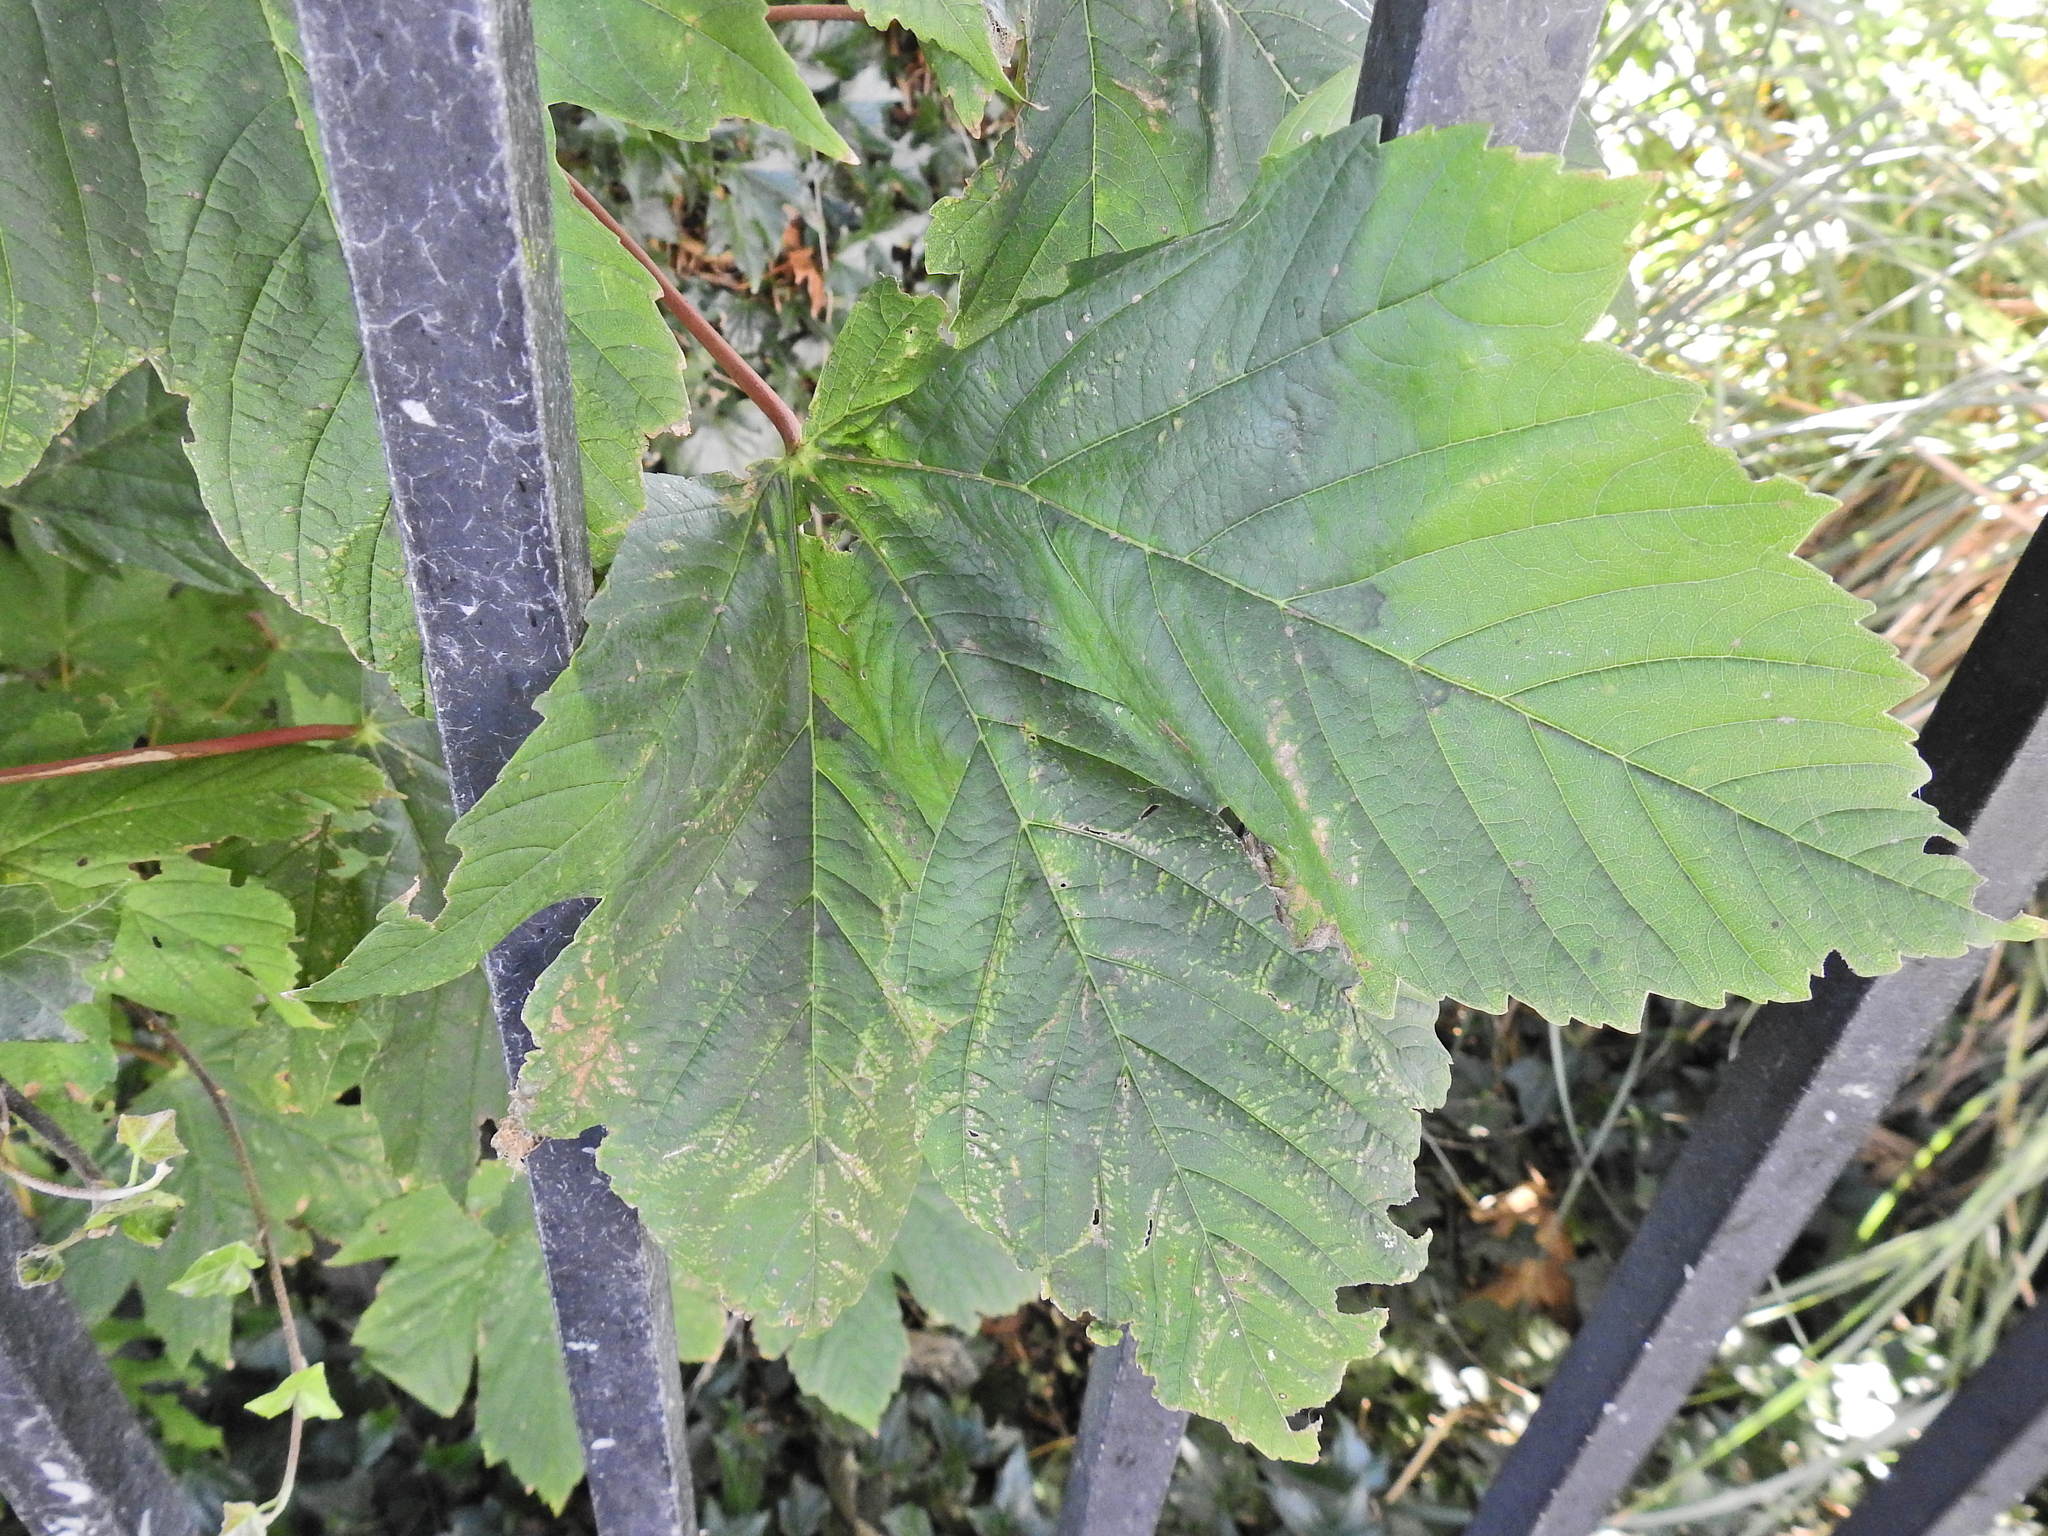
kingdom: Plantae
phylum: Tracheophyta
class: Magnoliopsida
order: Sapindales
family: Sapindaceae
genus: Acer
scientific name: Acer pseudoplatanus
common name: Sycamore
